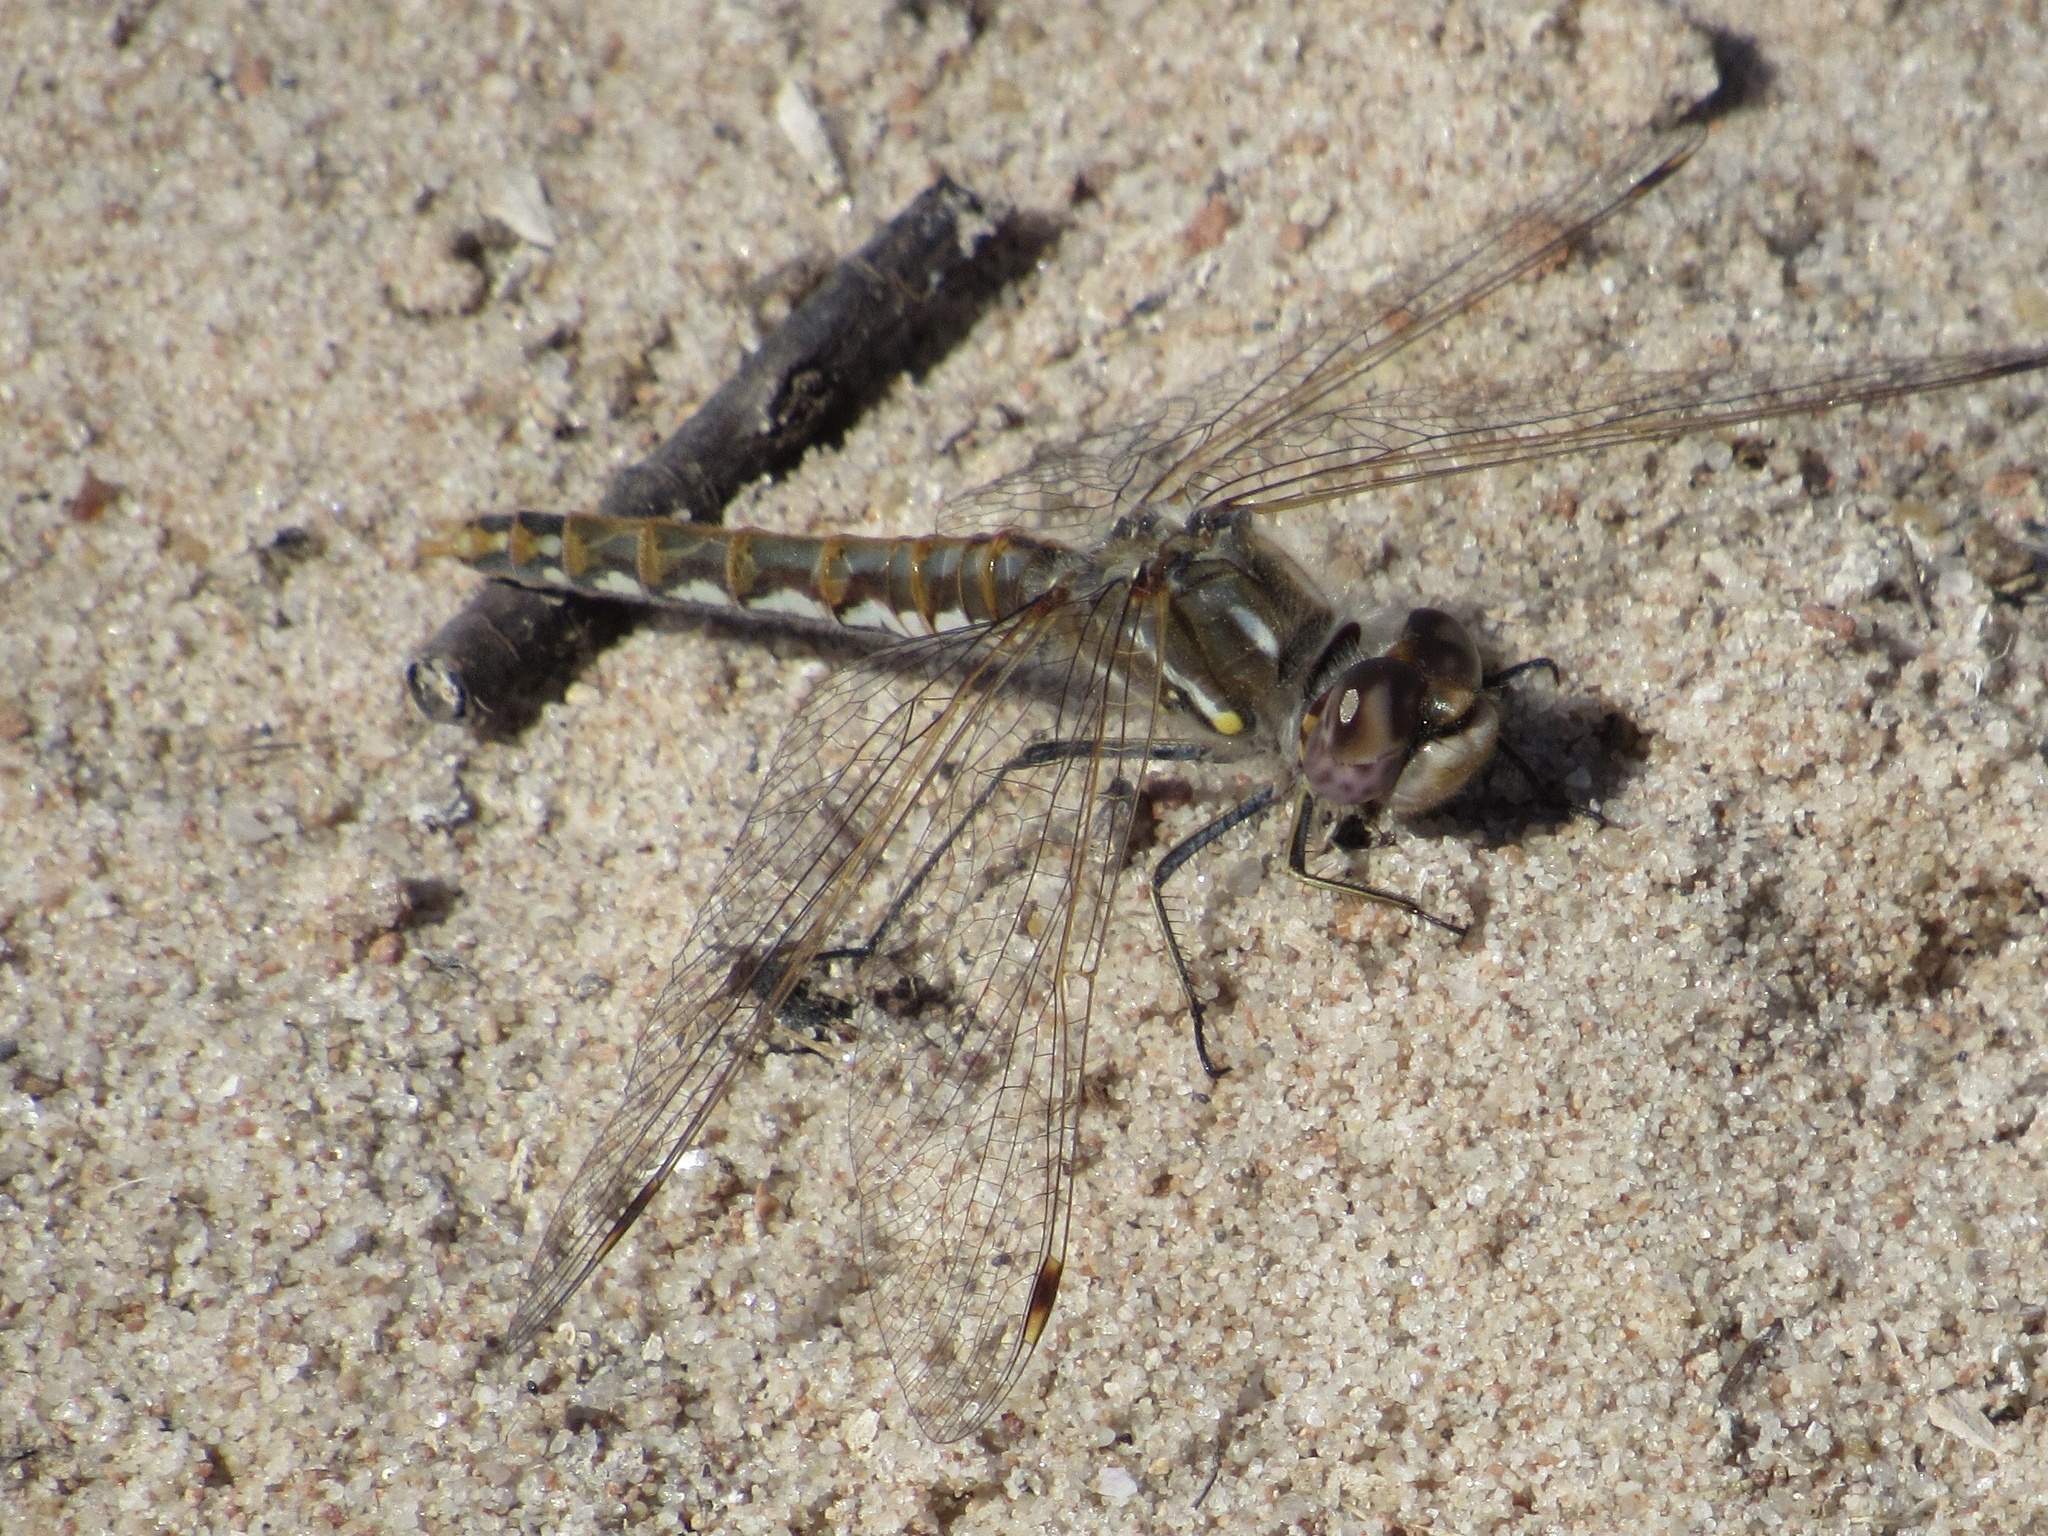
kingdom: Animalia
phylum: Arthropoda
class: Insecta
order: Odonata
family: Libellulidae
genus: Sympetrum
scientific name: Sympetrum corruptum
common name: Variegated meadowhawk
